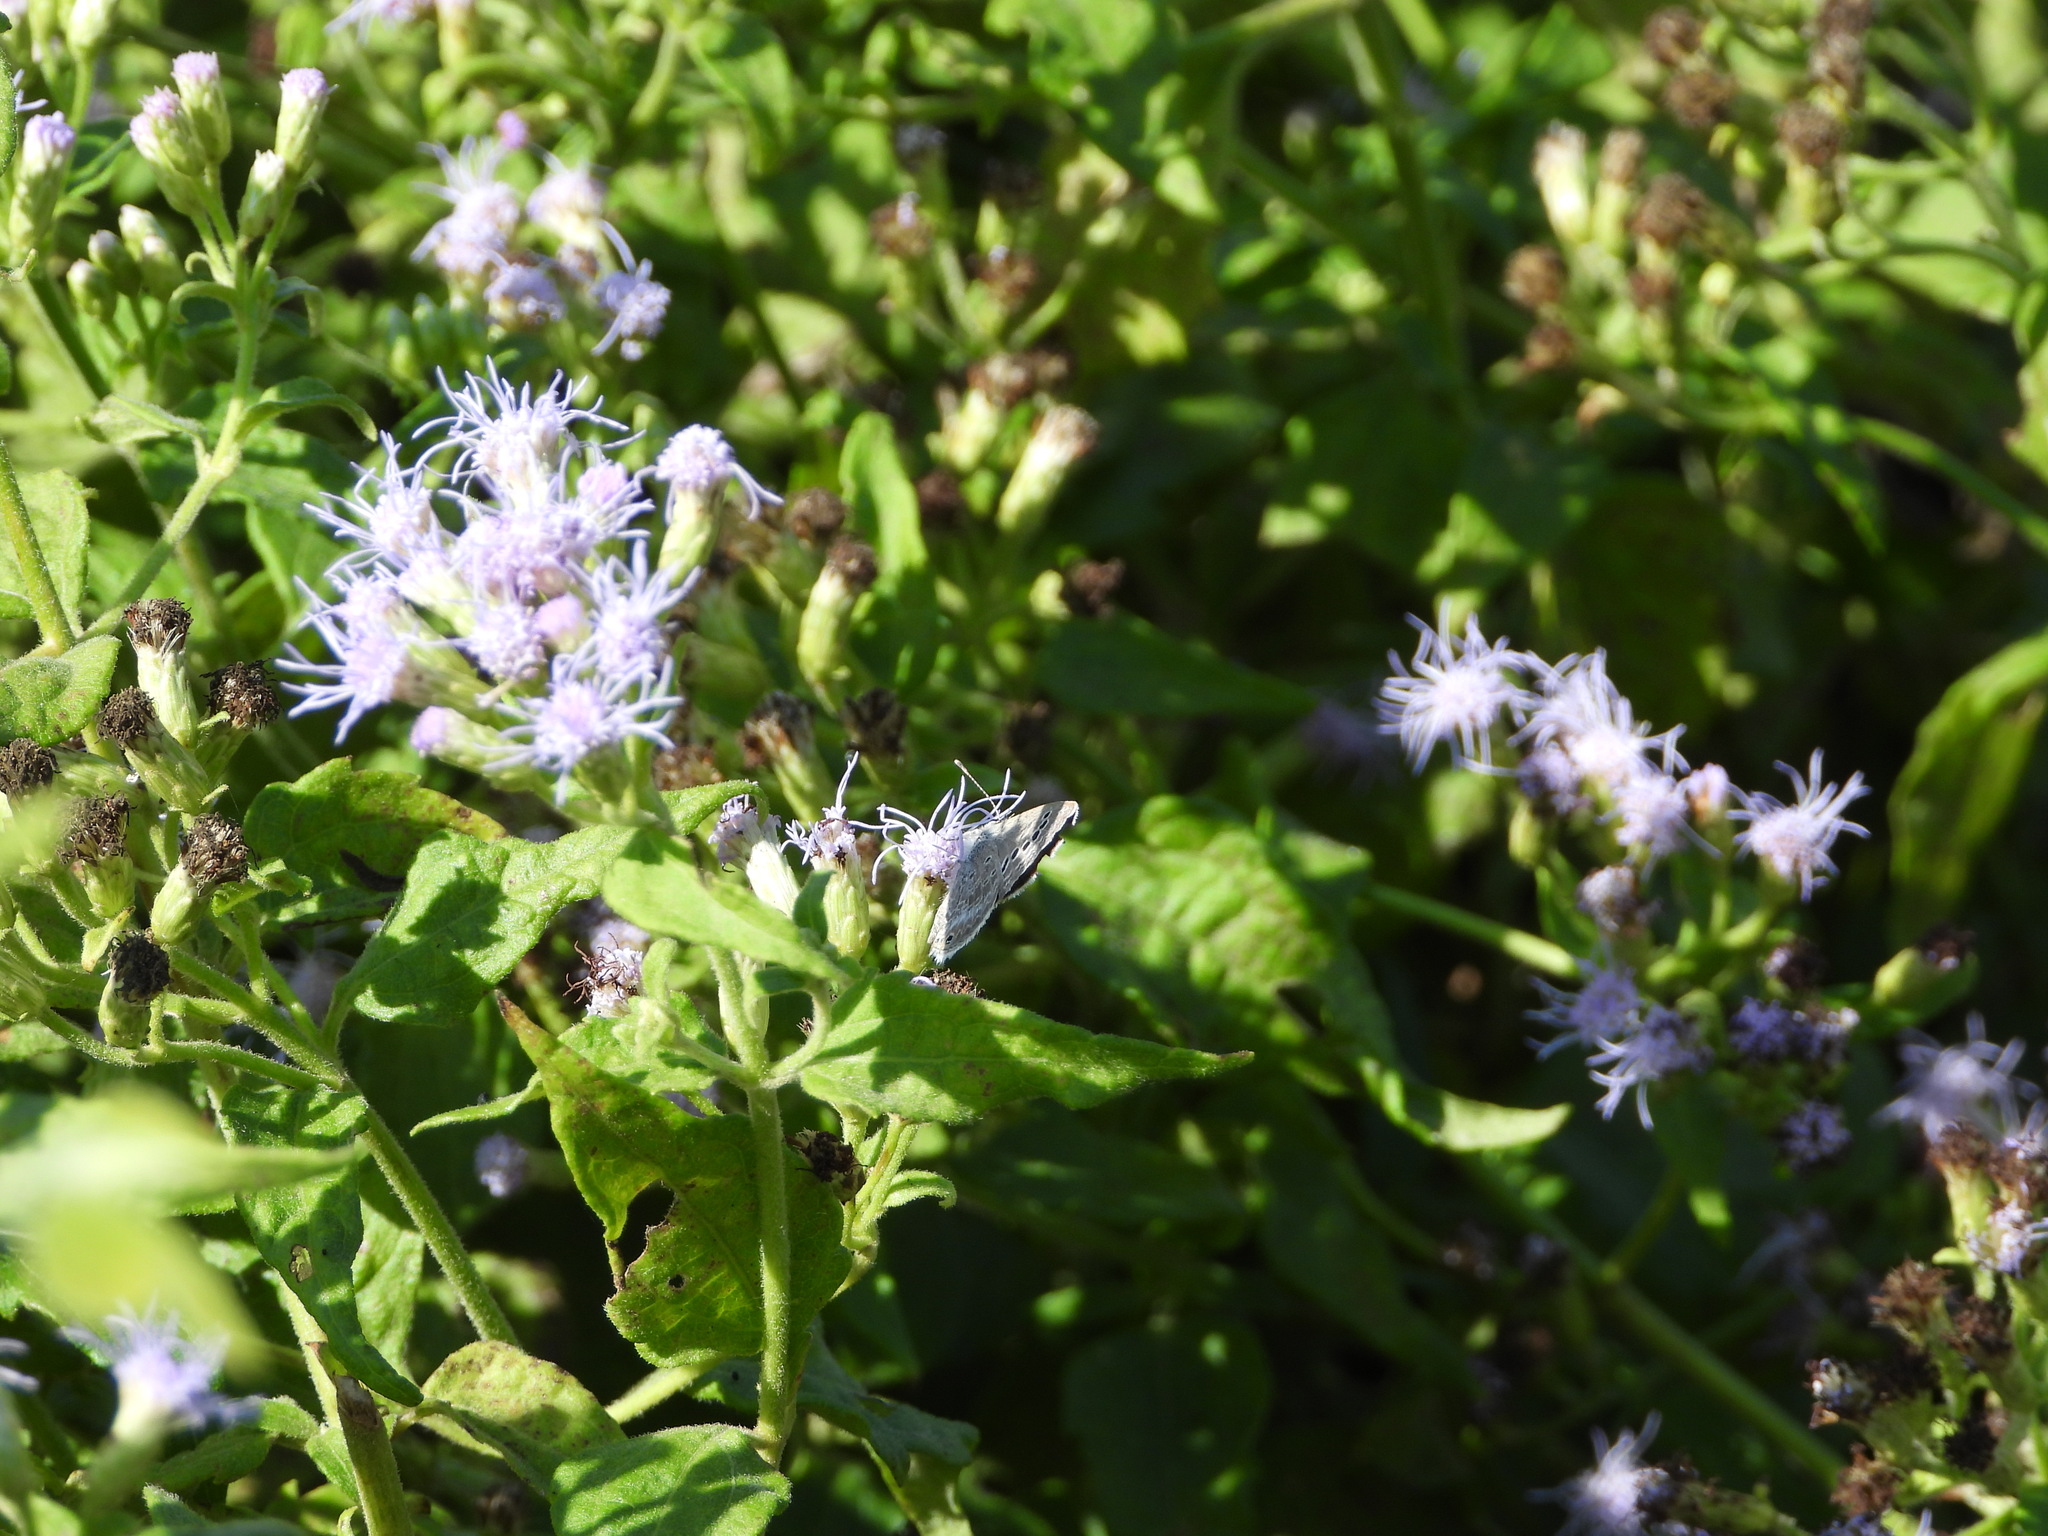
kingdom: Animalia
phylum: Arthropoda
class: Insecta
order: Lepidoptera
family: Lycaenidae
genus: Echinargus
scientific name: Echinargus isola
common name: Reakirt's blue
